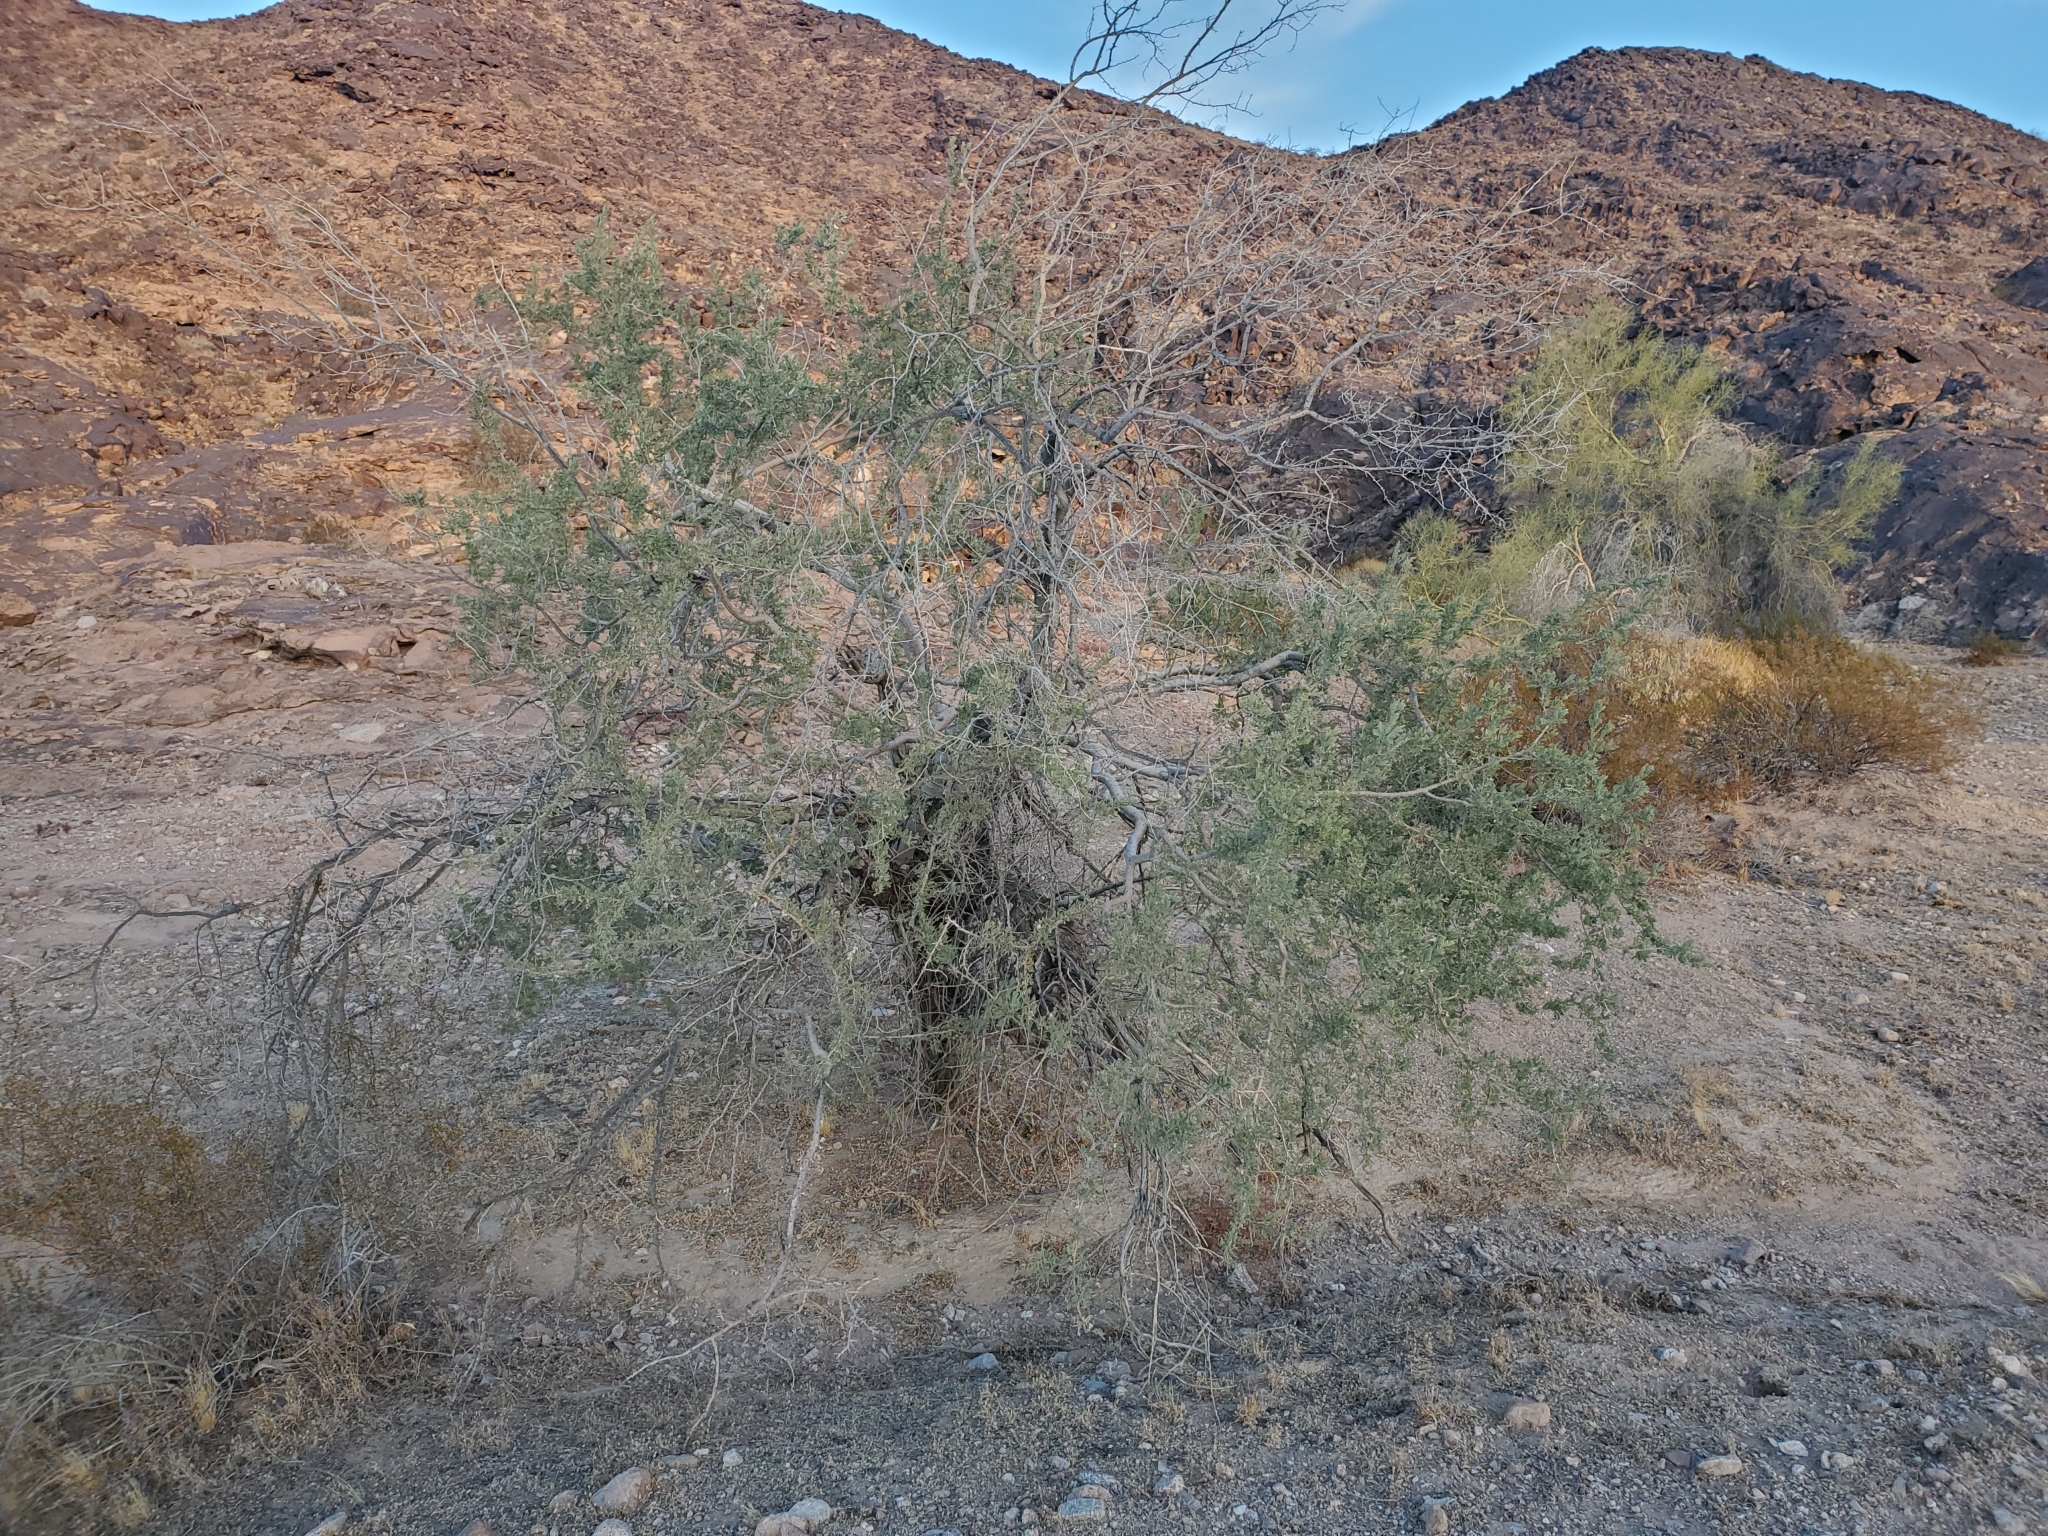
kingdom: Plantae
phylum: Tracheophyta
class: Magnoliopsida
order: Fabales
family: Fabaceae
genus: Olneya
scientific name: Olneya tesota
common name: Desert ironwood
